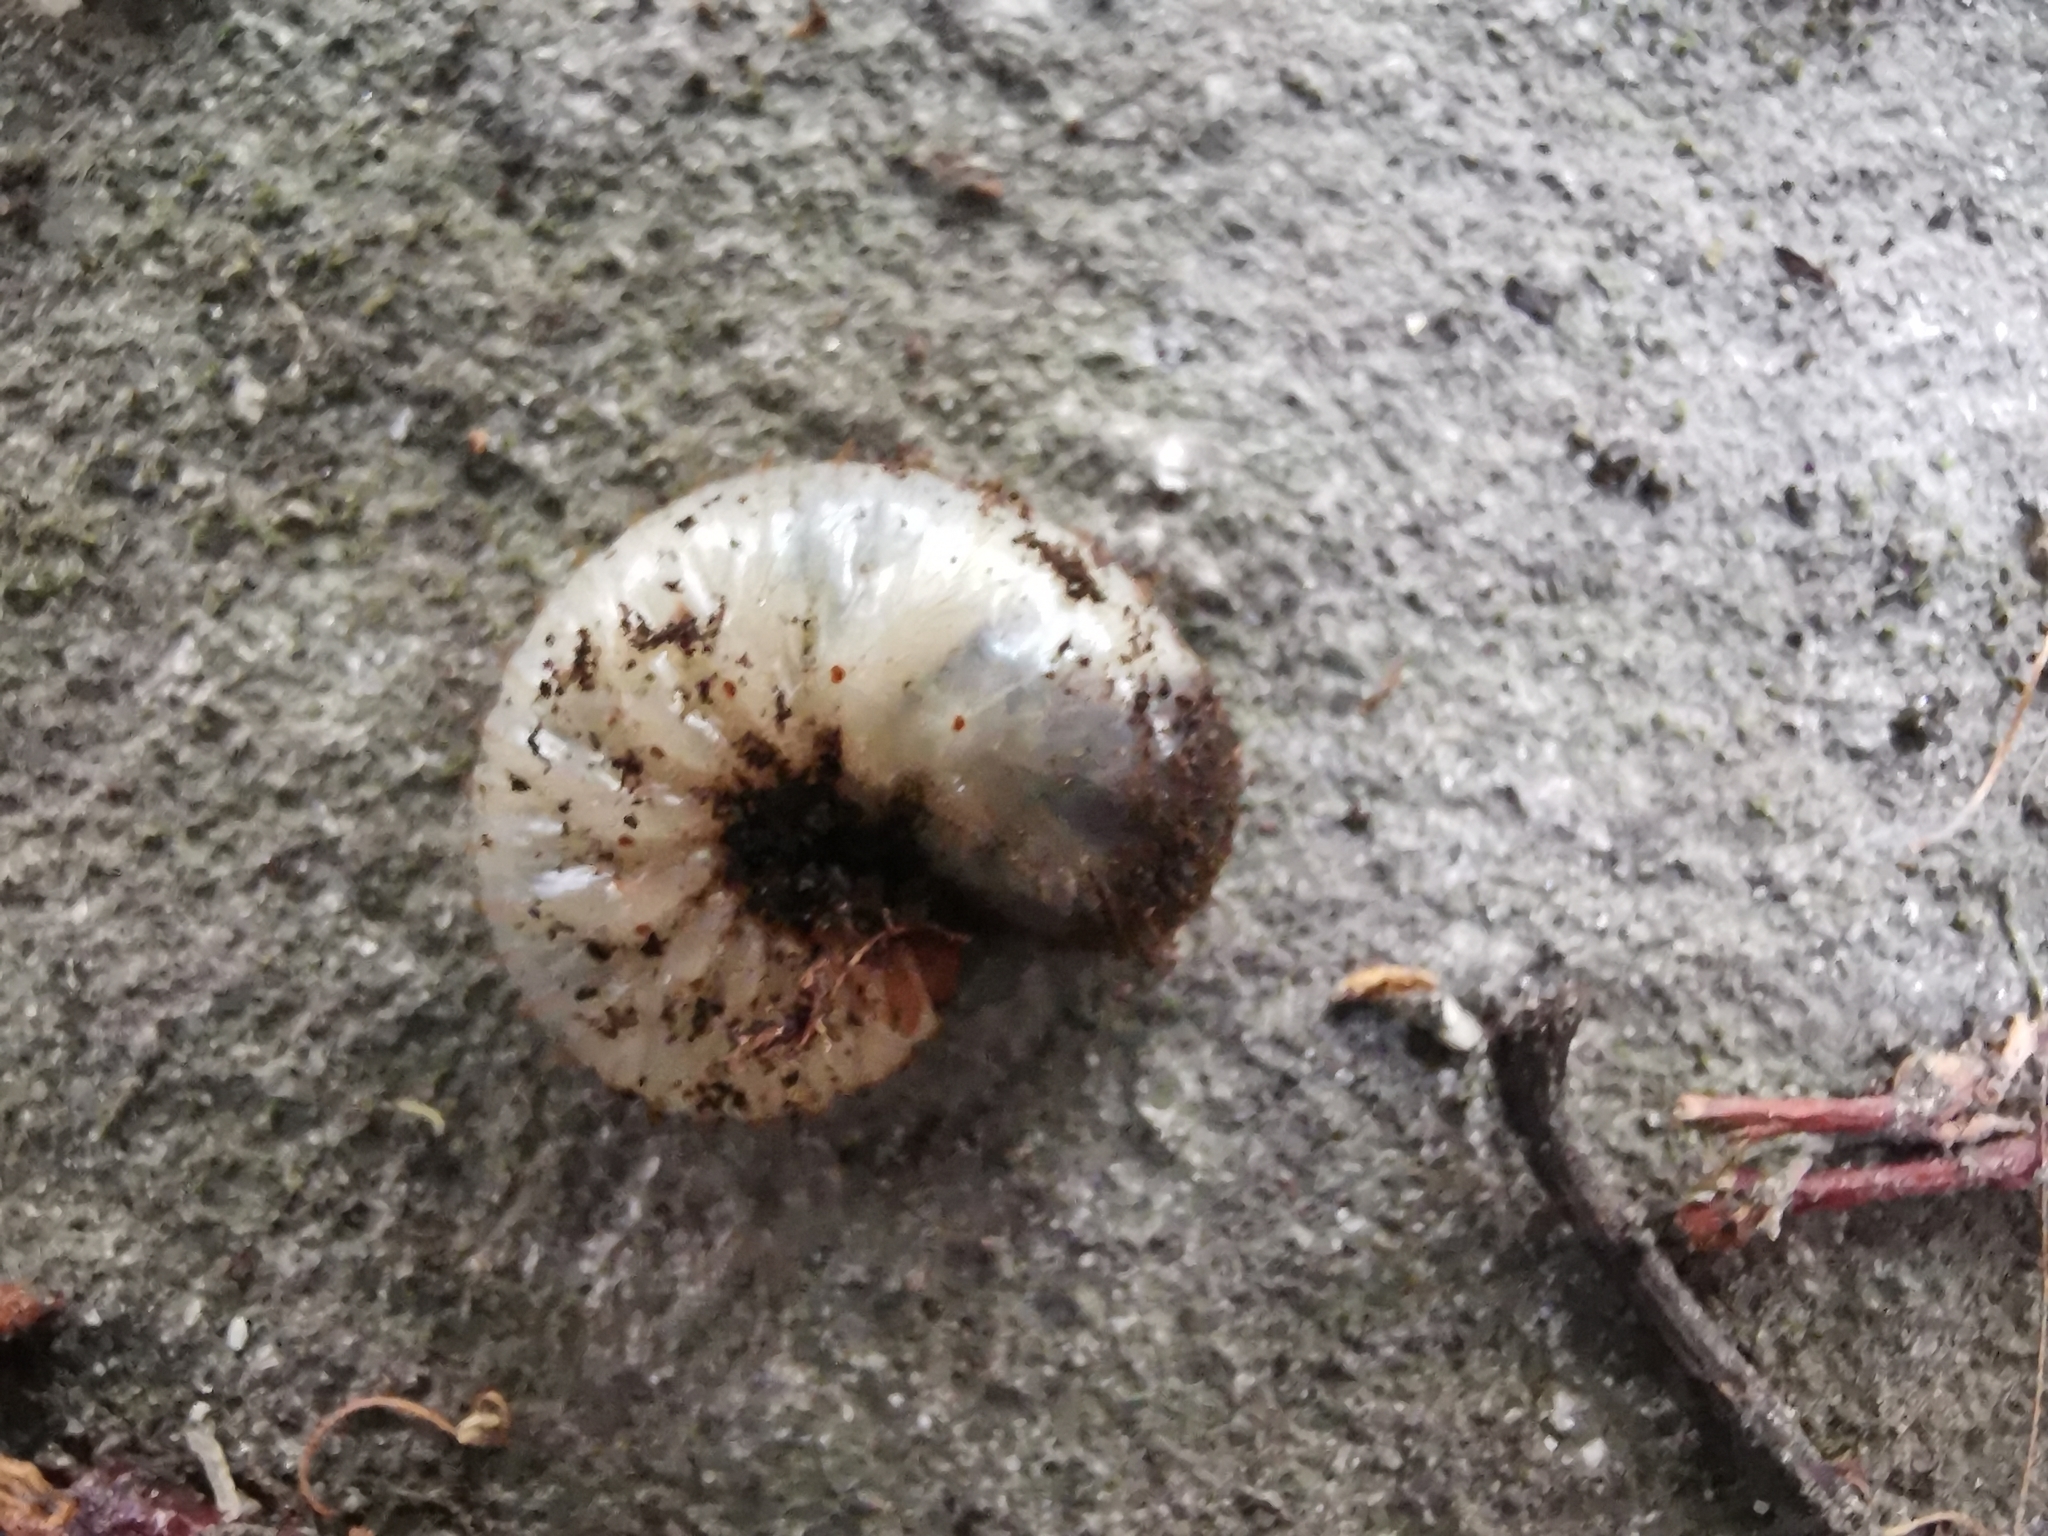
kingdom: Animalia
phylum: Arthropoda
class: Insecta
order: Coleoptera
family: Scarabaeidae
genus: Cetonia
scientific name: Cetonia aurata
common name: Rose chafer
